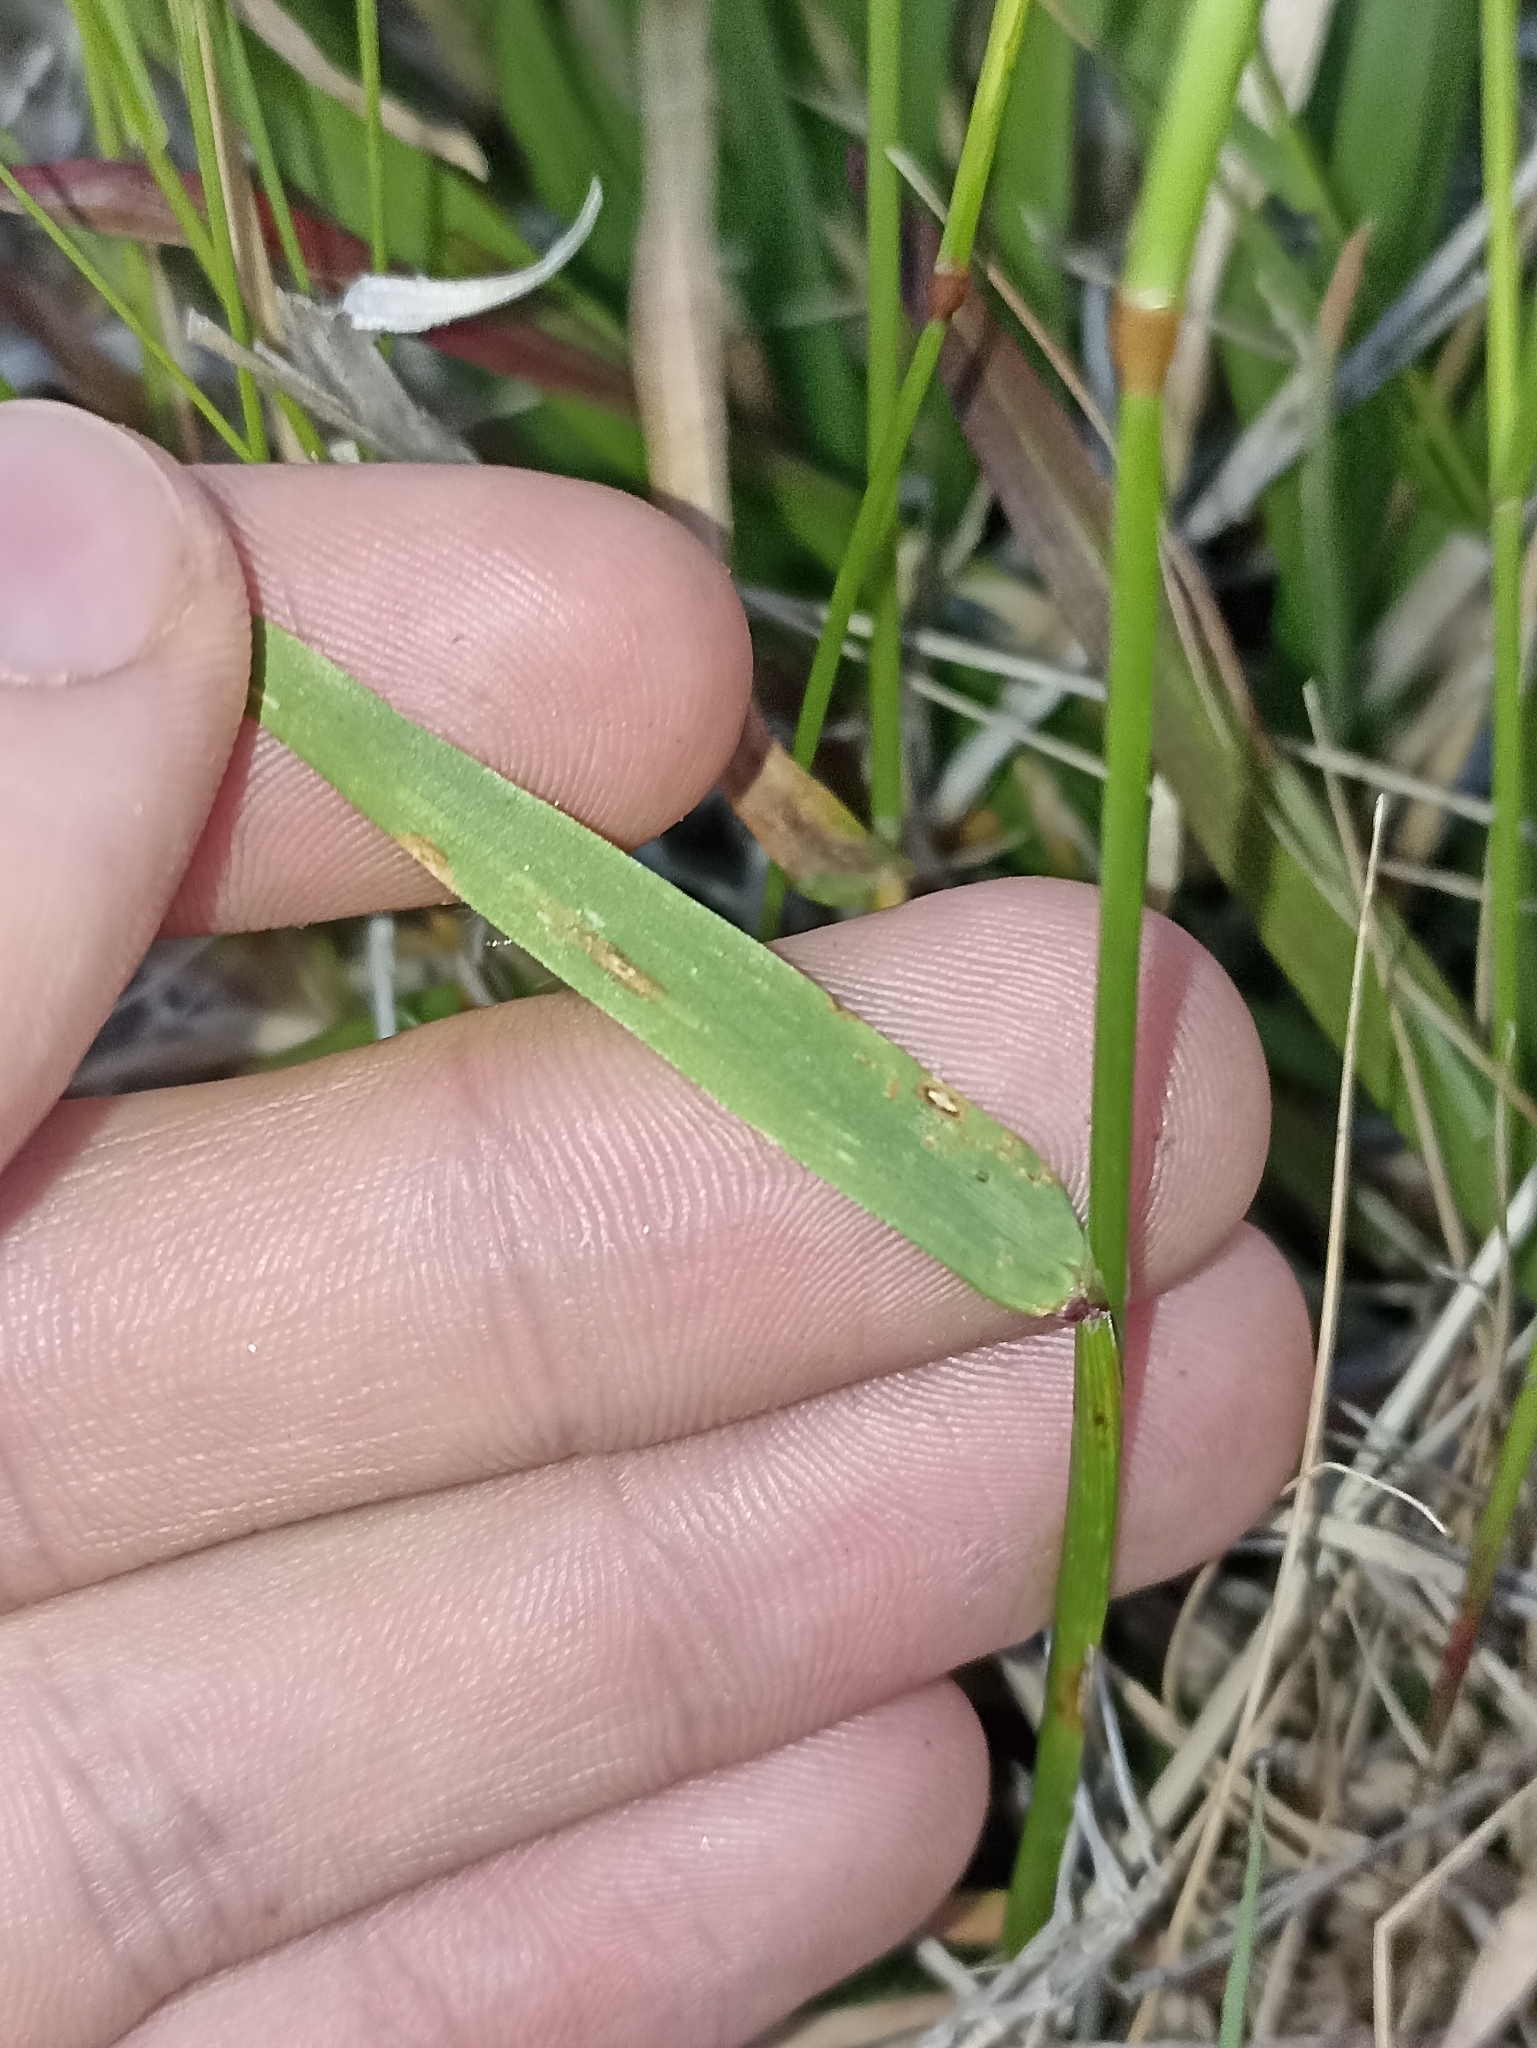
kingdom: Plantae
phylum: Tracheophyta
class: Liliopsida
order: Poales
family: Poaceae
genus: Anthoxanthum
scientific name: Anthoxanthum odoratum
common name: Sweet vernalgrass
